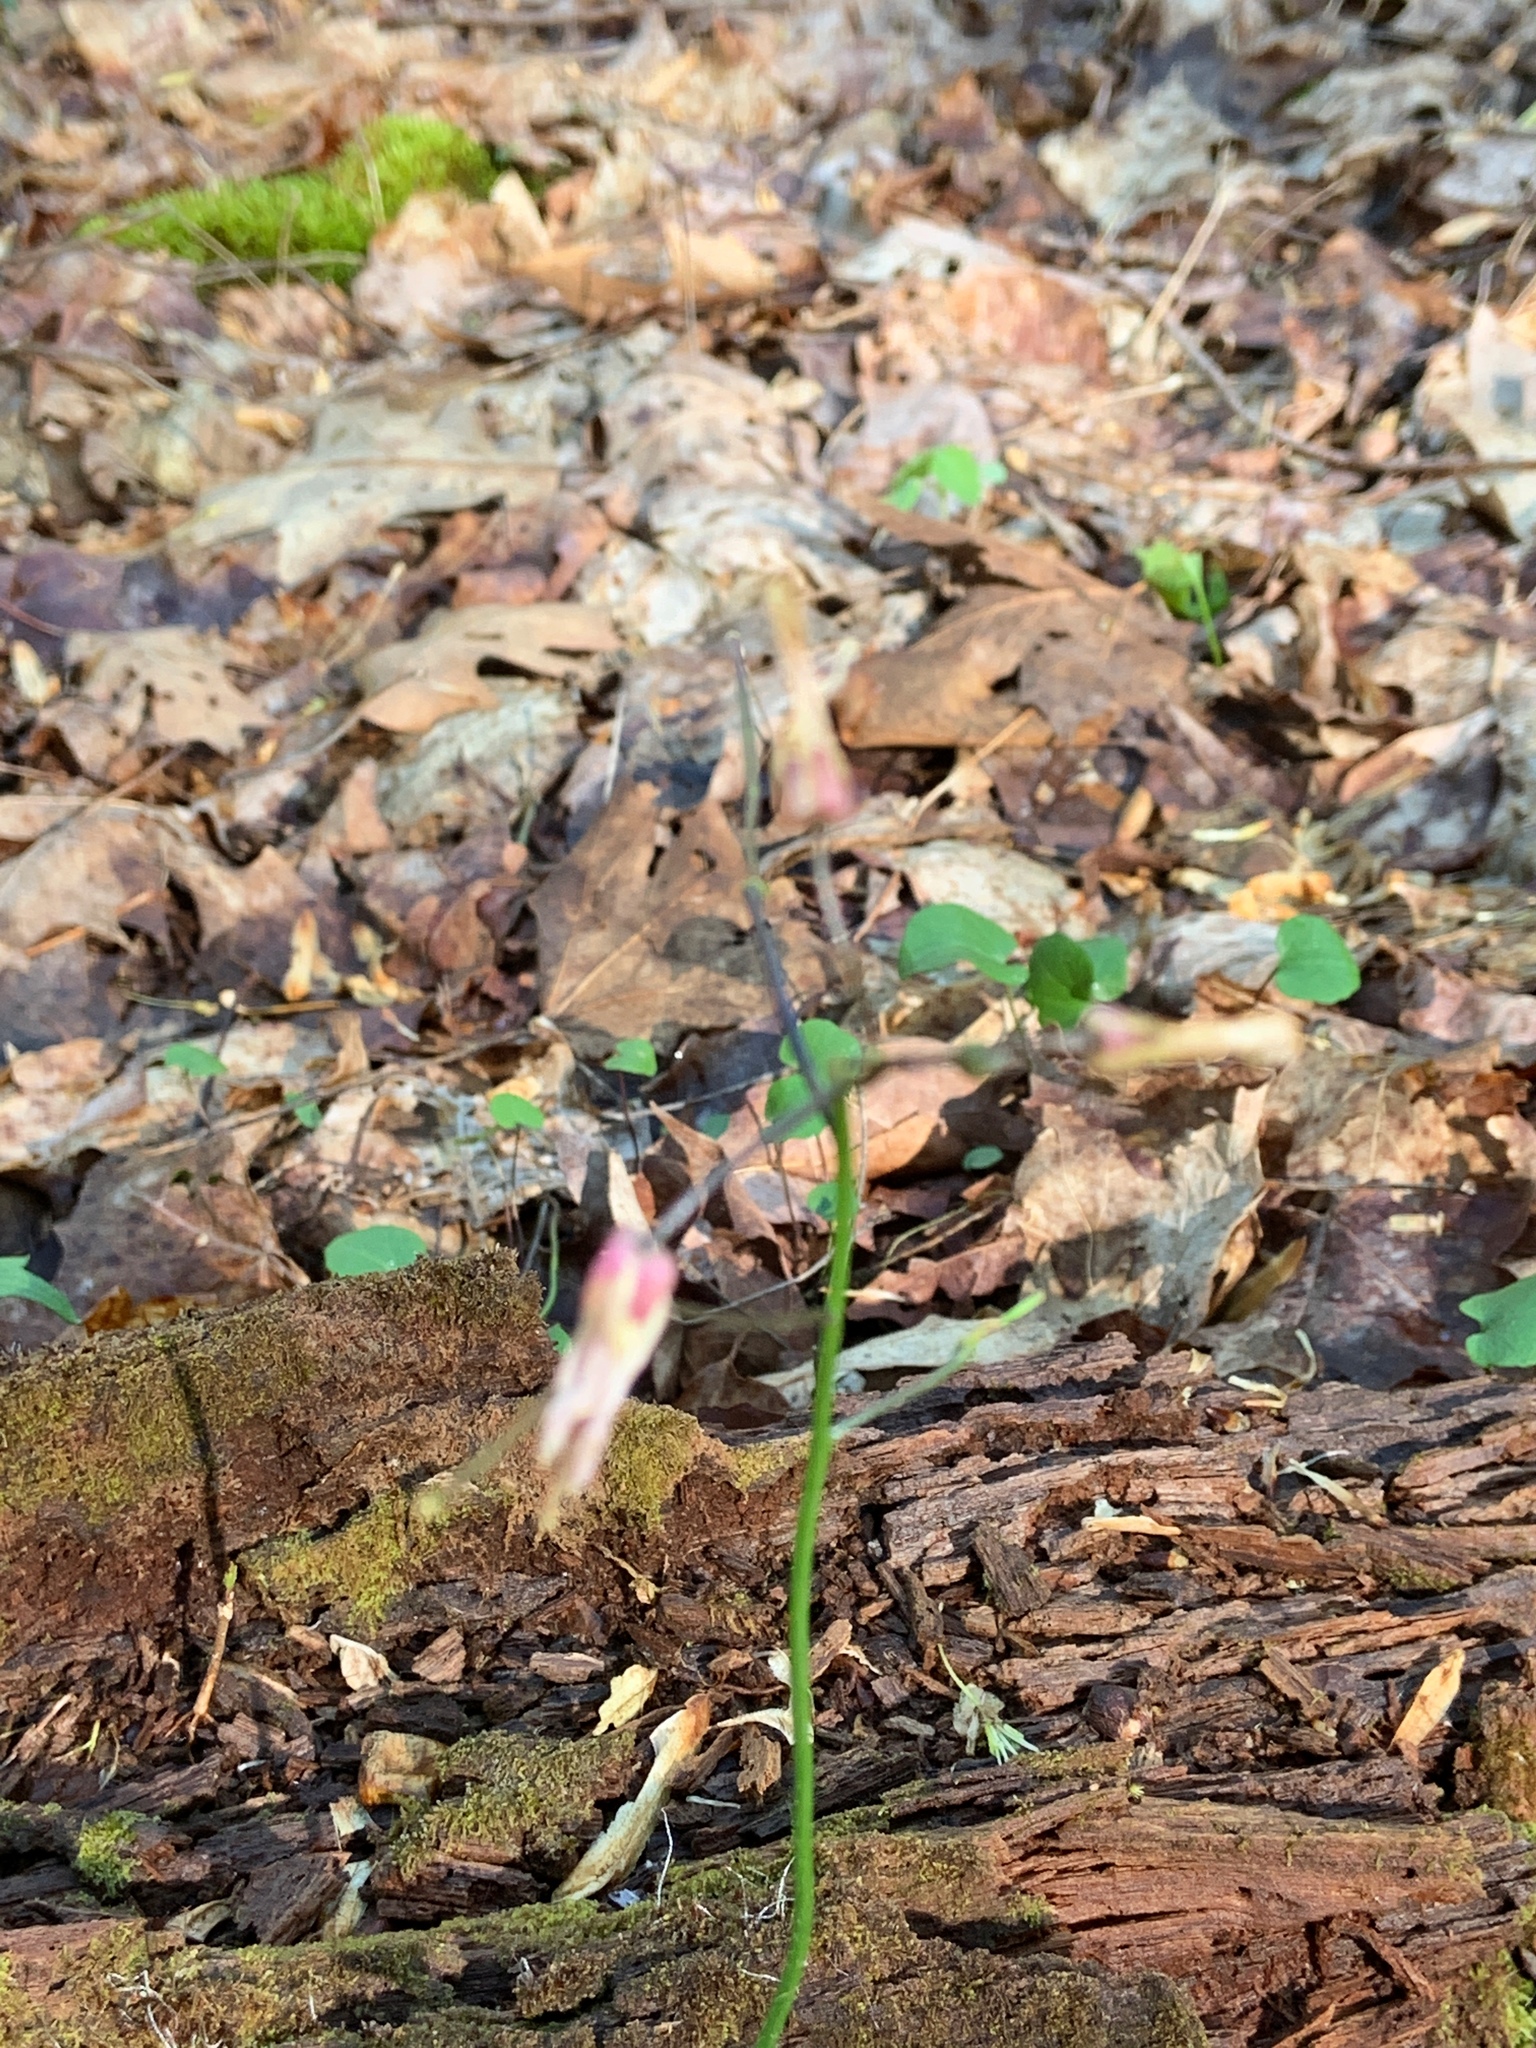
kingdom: Plantae
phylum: Tracheophyta
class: Magnoliopsida
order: Brassicales
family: Brassicaceae
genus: Cardamine
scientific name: Cardamine douglassii
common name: Purple cress
